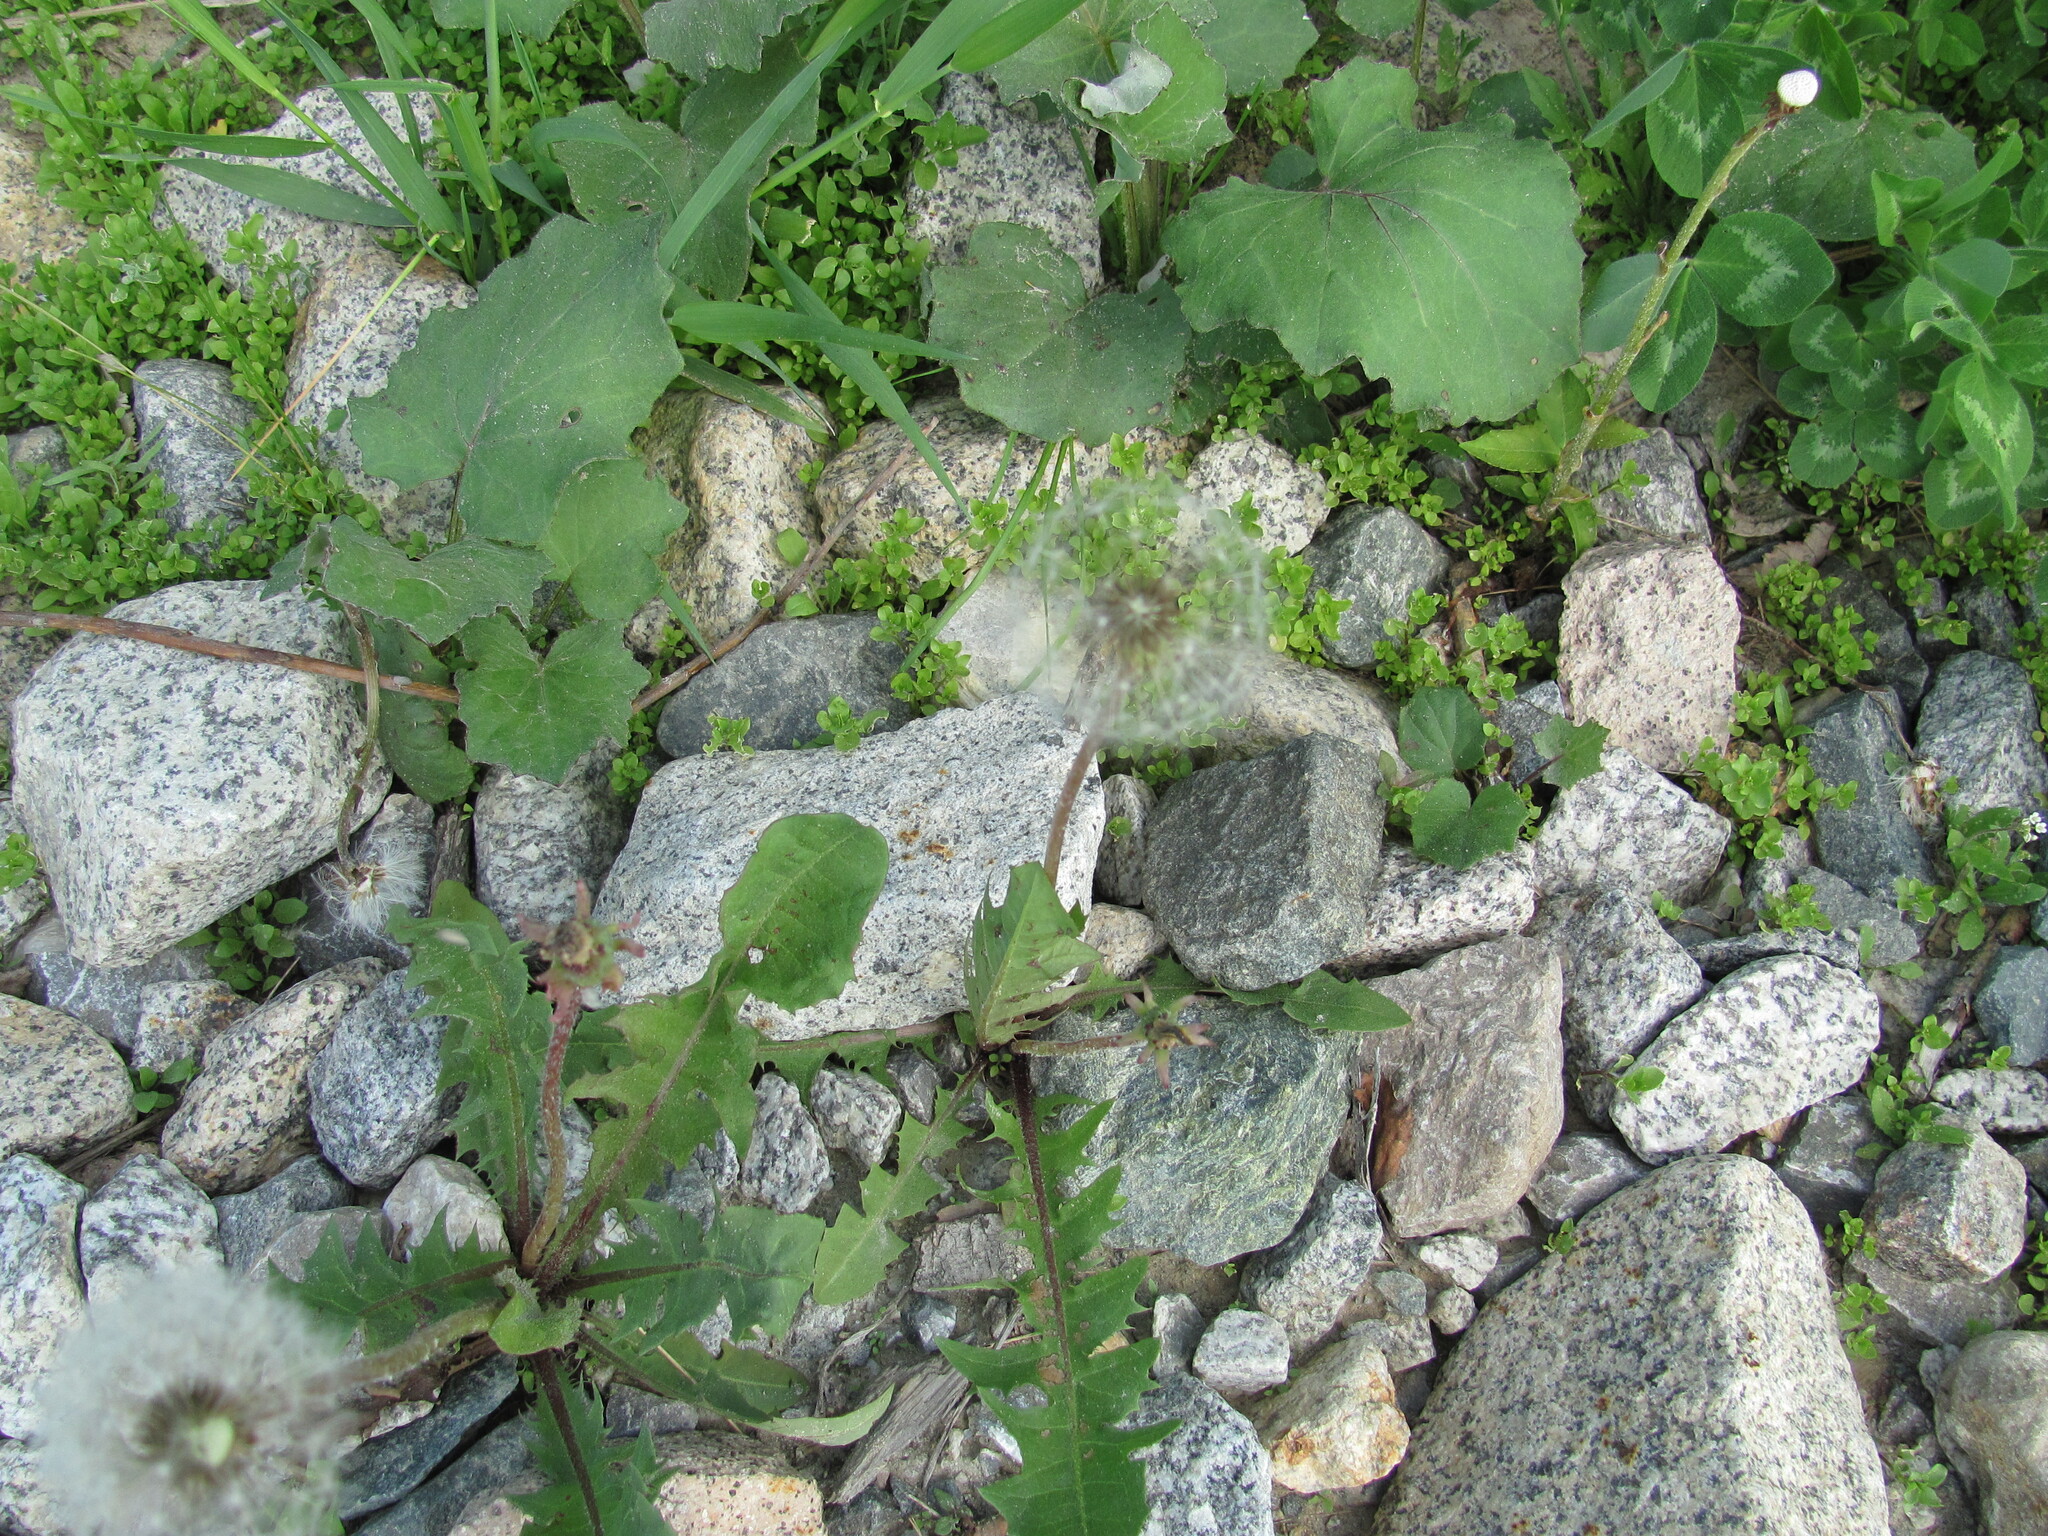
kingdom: Plantae
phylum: Tracheophyta
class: Magnoliopsida
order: Asterales
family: Asteraceae
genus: Tussilago
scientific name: Tussilago farfara
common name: Coltsfoot
